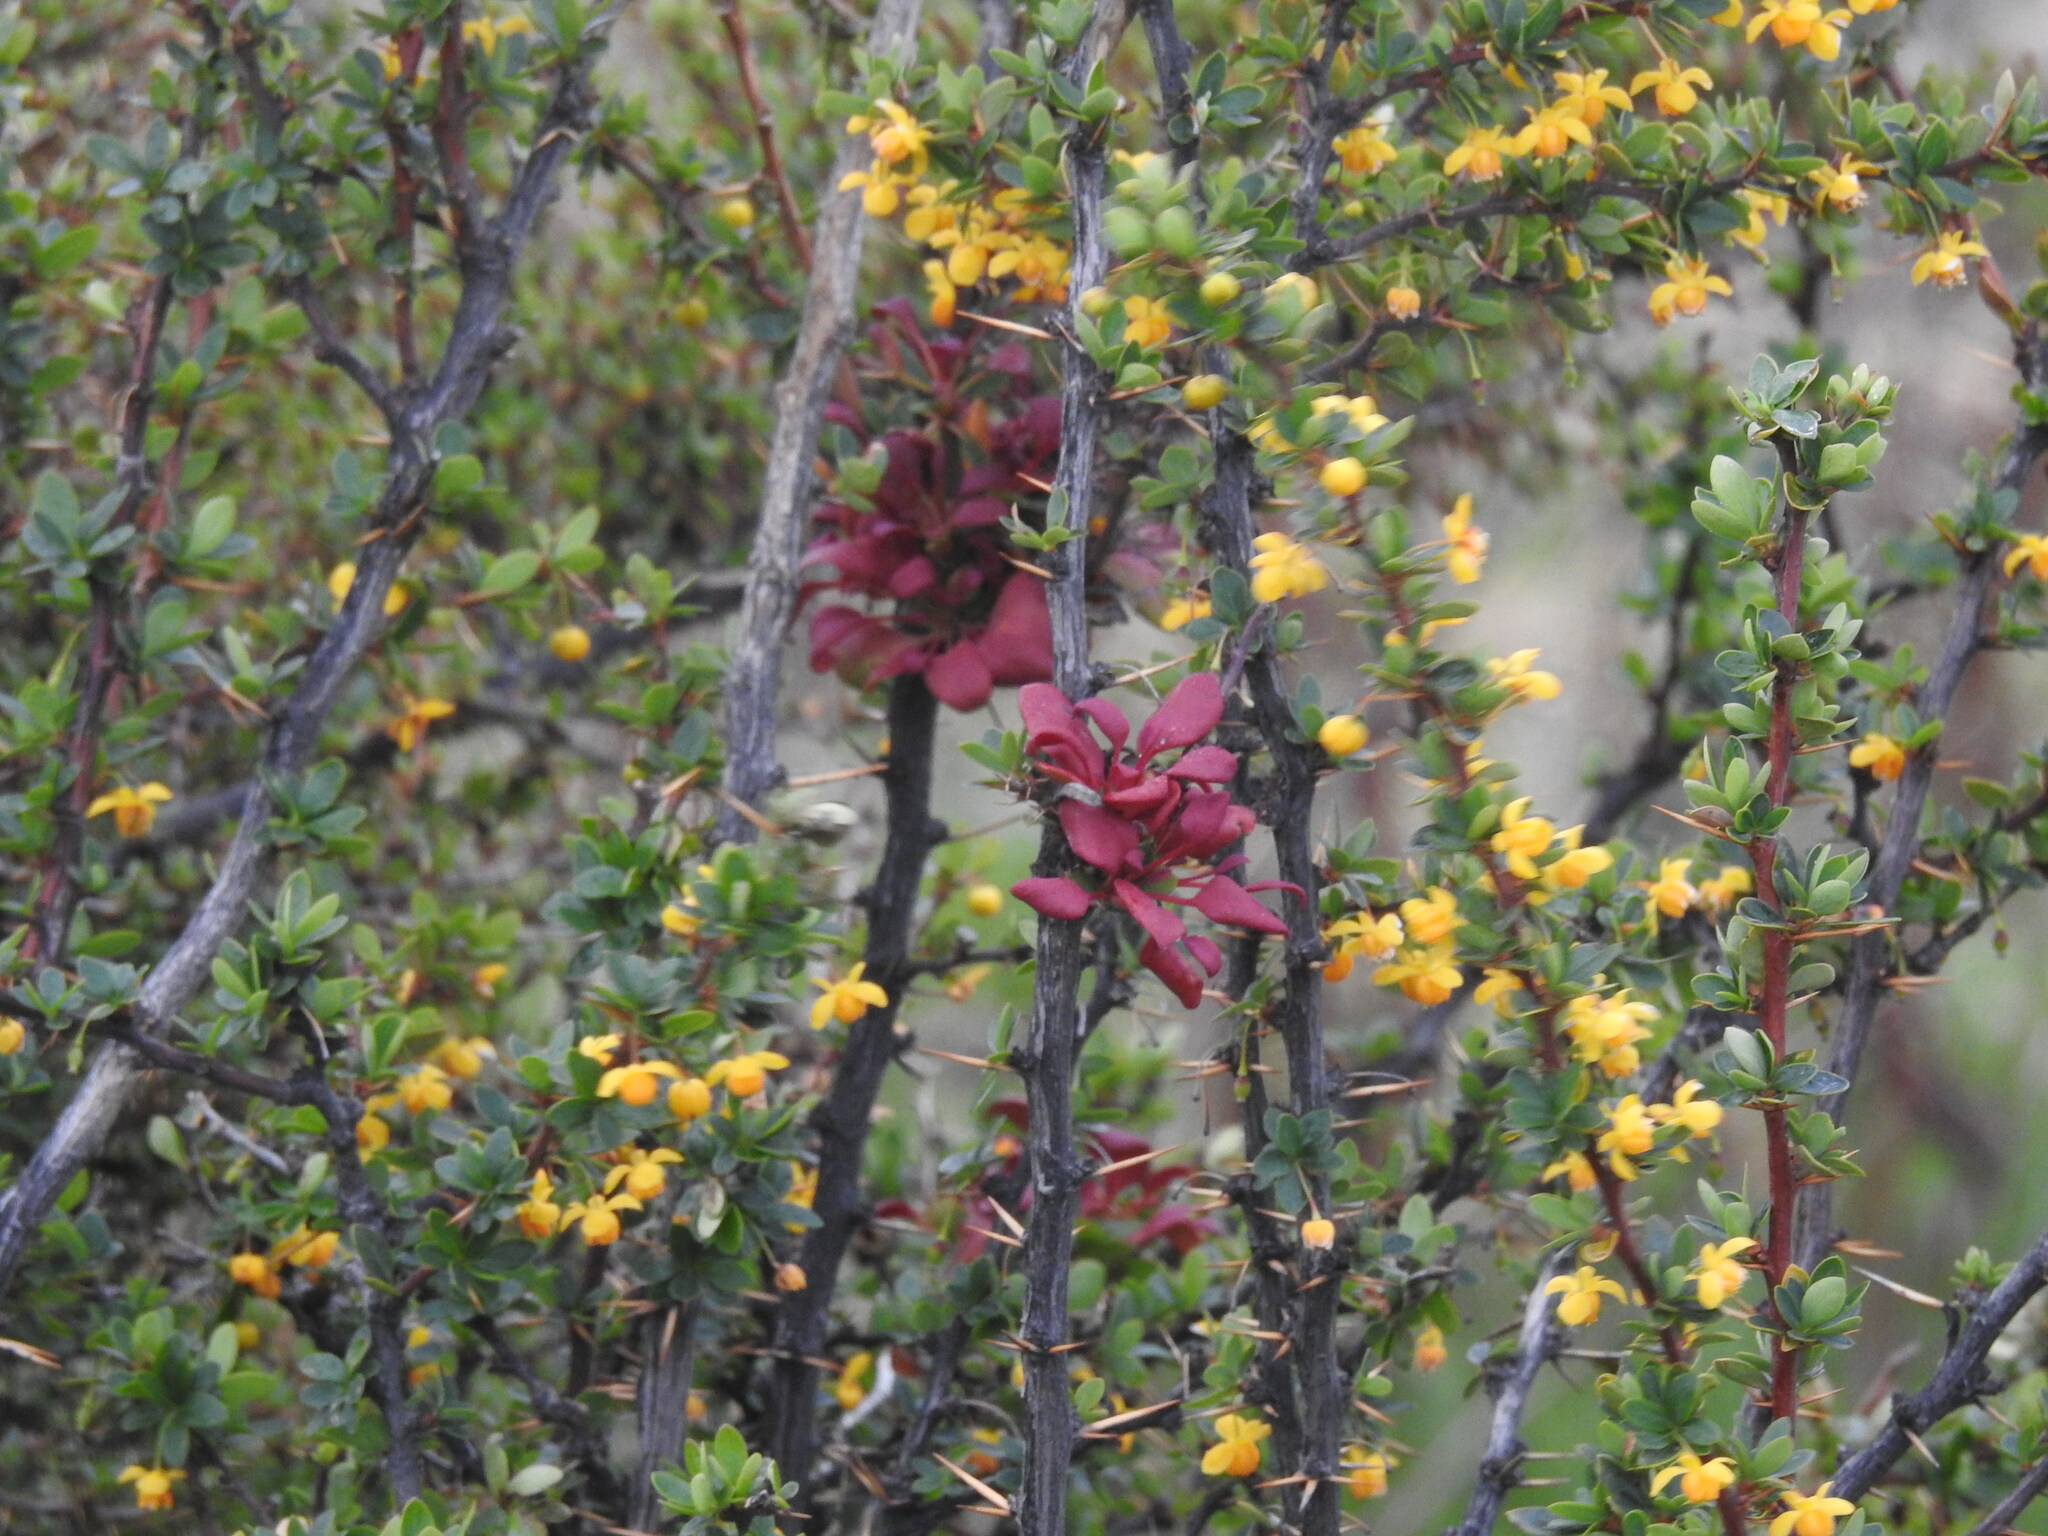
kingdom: Fungi
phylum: Basidiomycota
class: Pucciniomycetes
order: Pucciniales
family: Pucciniaceae
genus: Puccinia
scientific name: Puccinia magellanica
